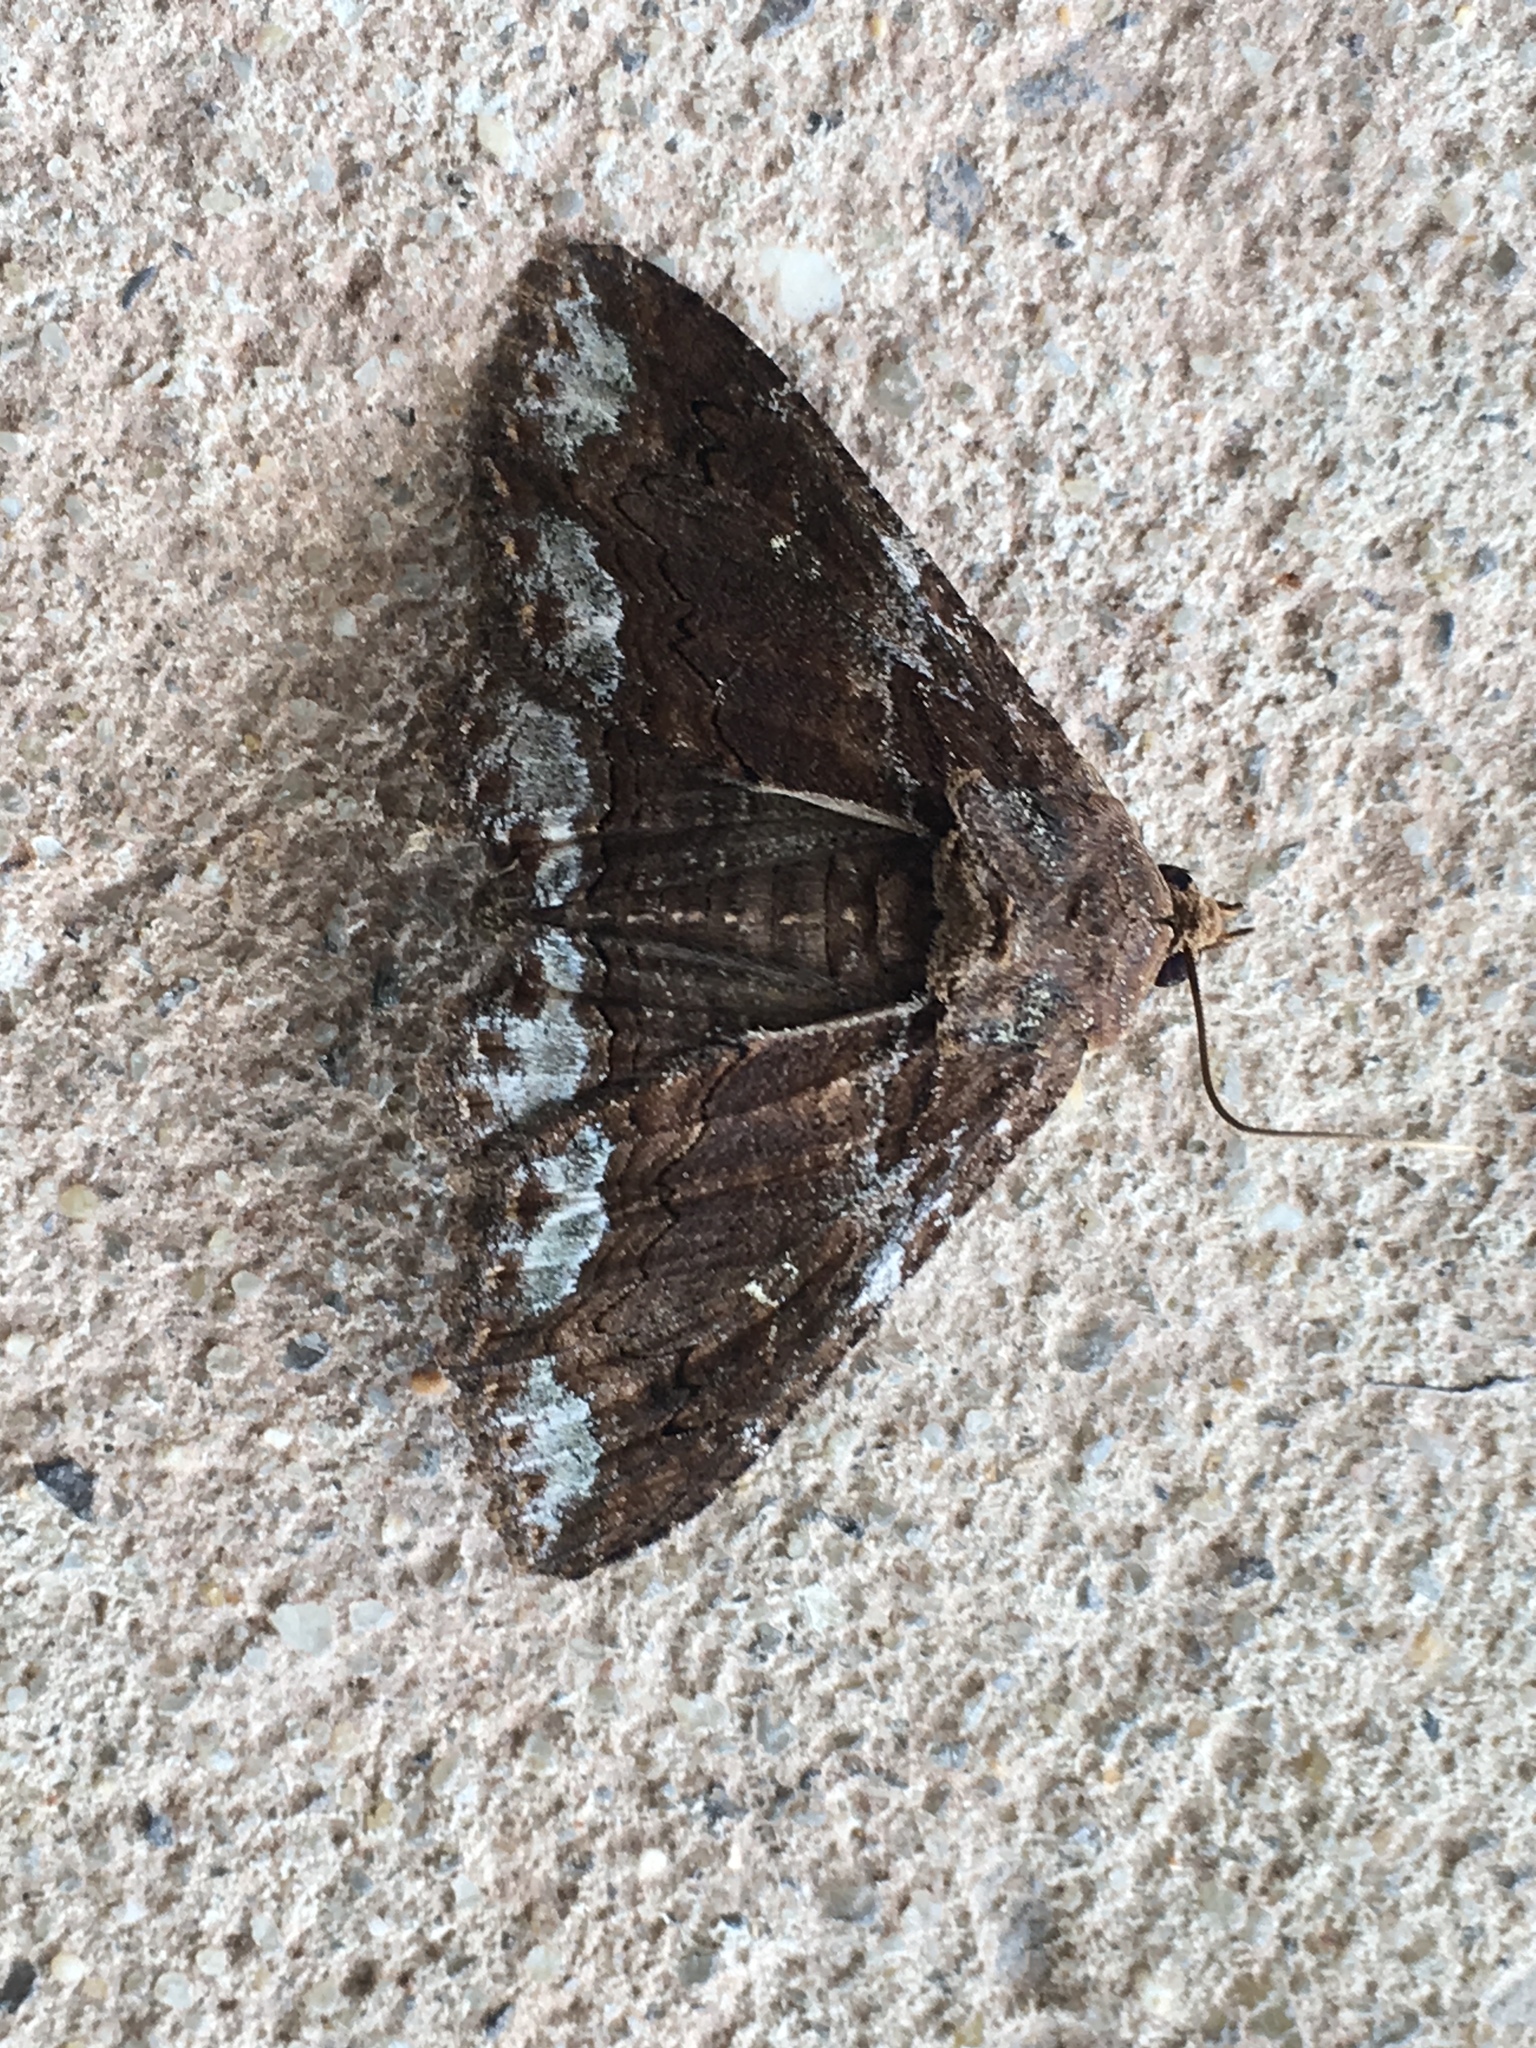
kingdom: Animalia
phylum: Arthropoda
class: Insecta
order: Lepidoptera
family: Erebidae
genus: Zale
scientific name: Zale lunata
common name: Lunate zale moth
